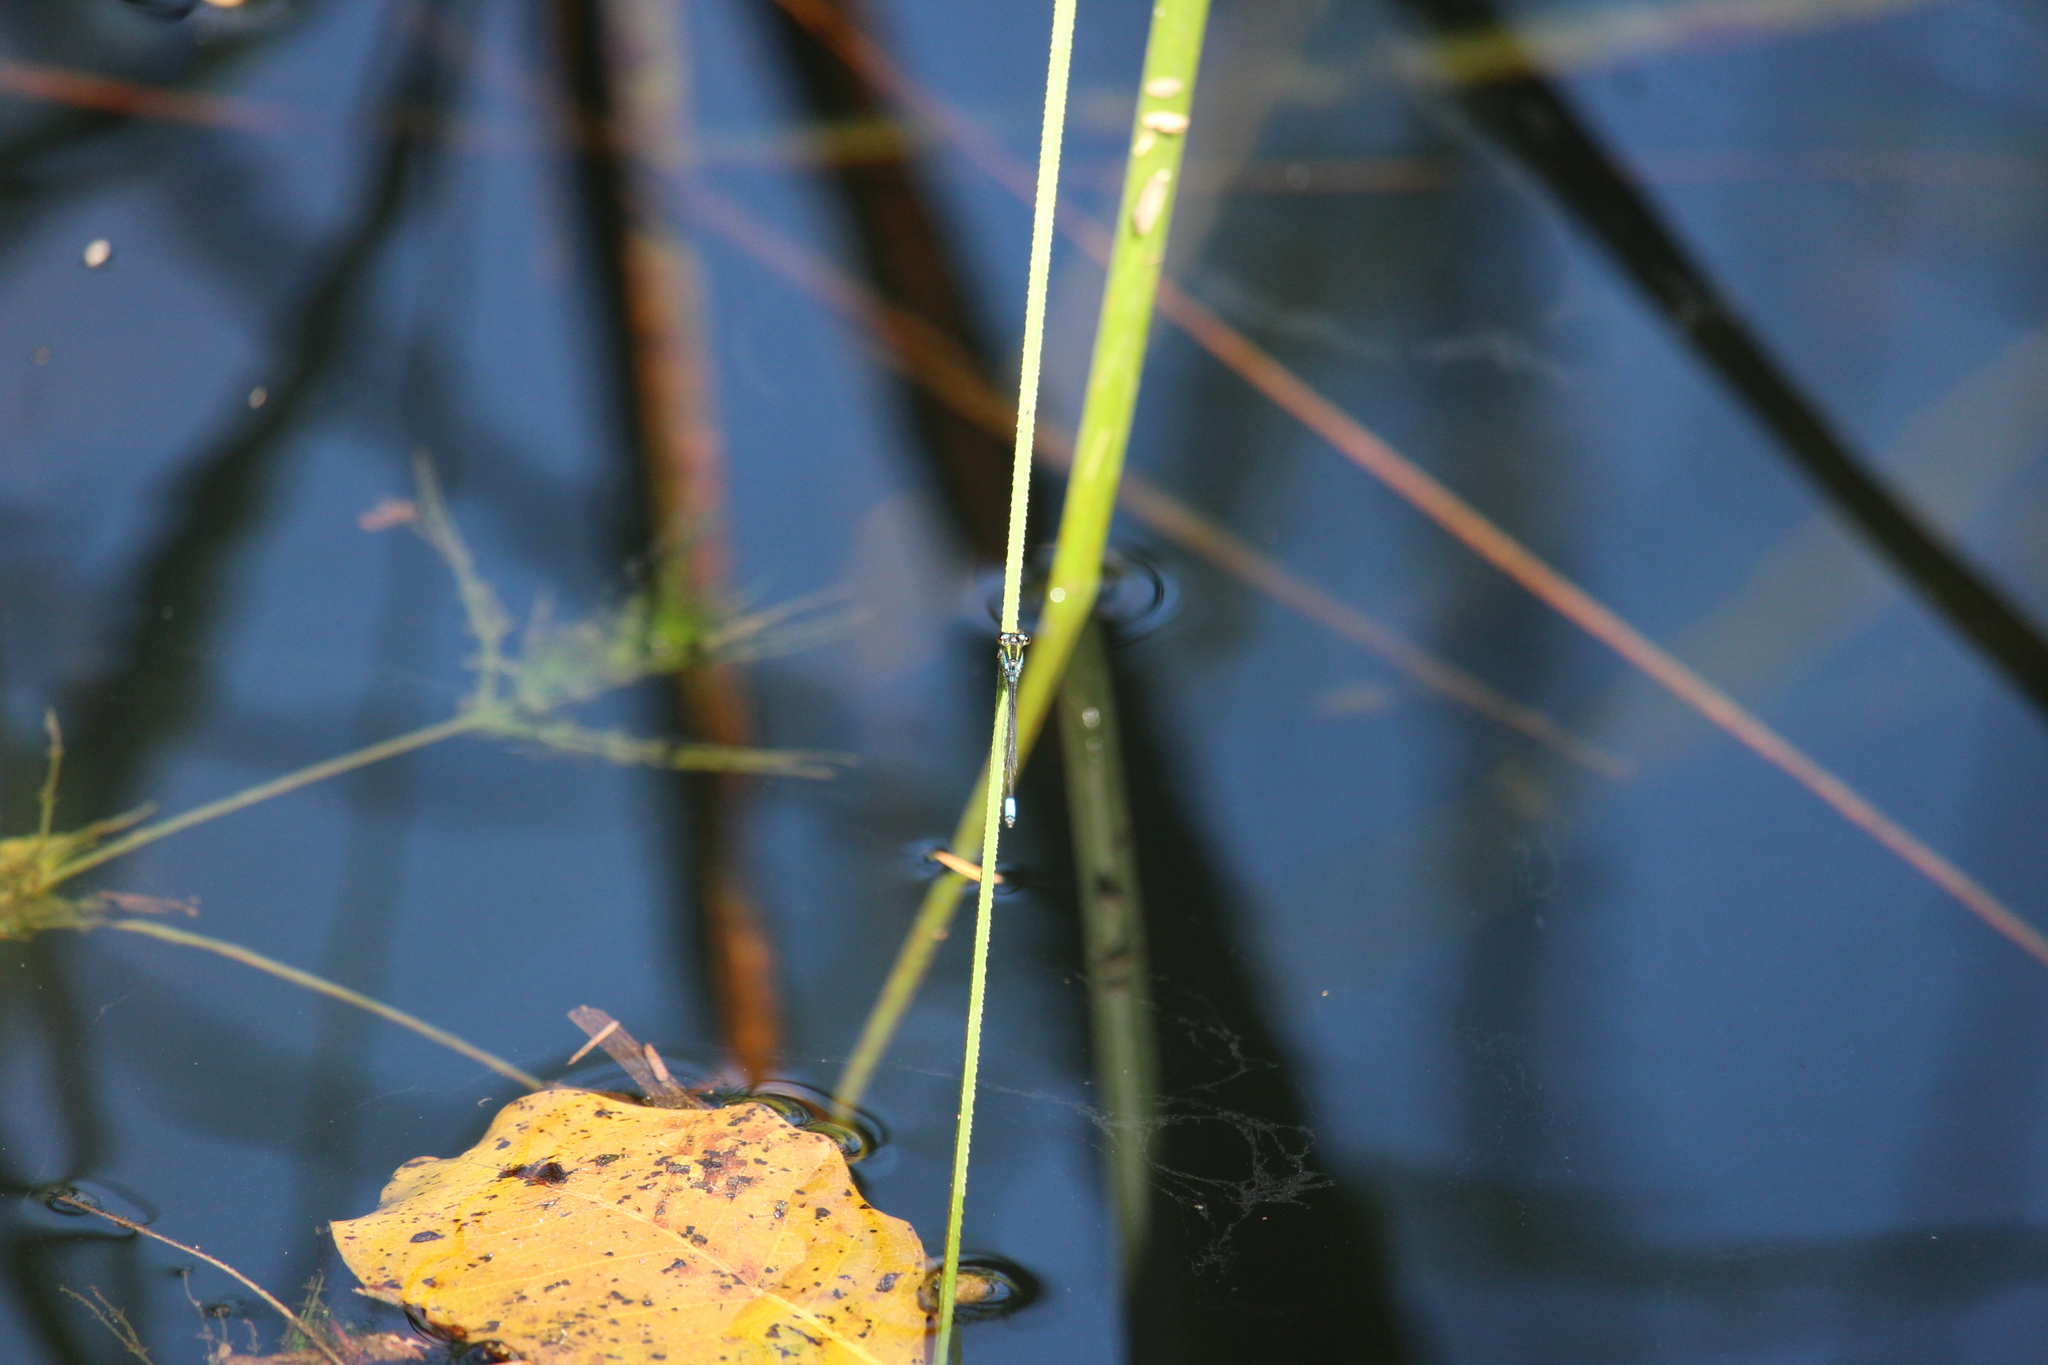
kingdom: Animalia
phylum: Arthropoda
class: Insecta
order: Odonata
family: Coenagrionidae
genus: Neoerythromma
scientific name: Neoerythromma cultellatum
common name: Caribbean yellowface
